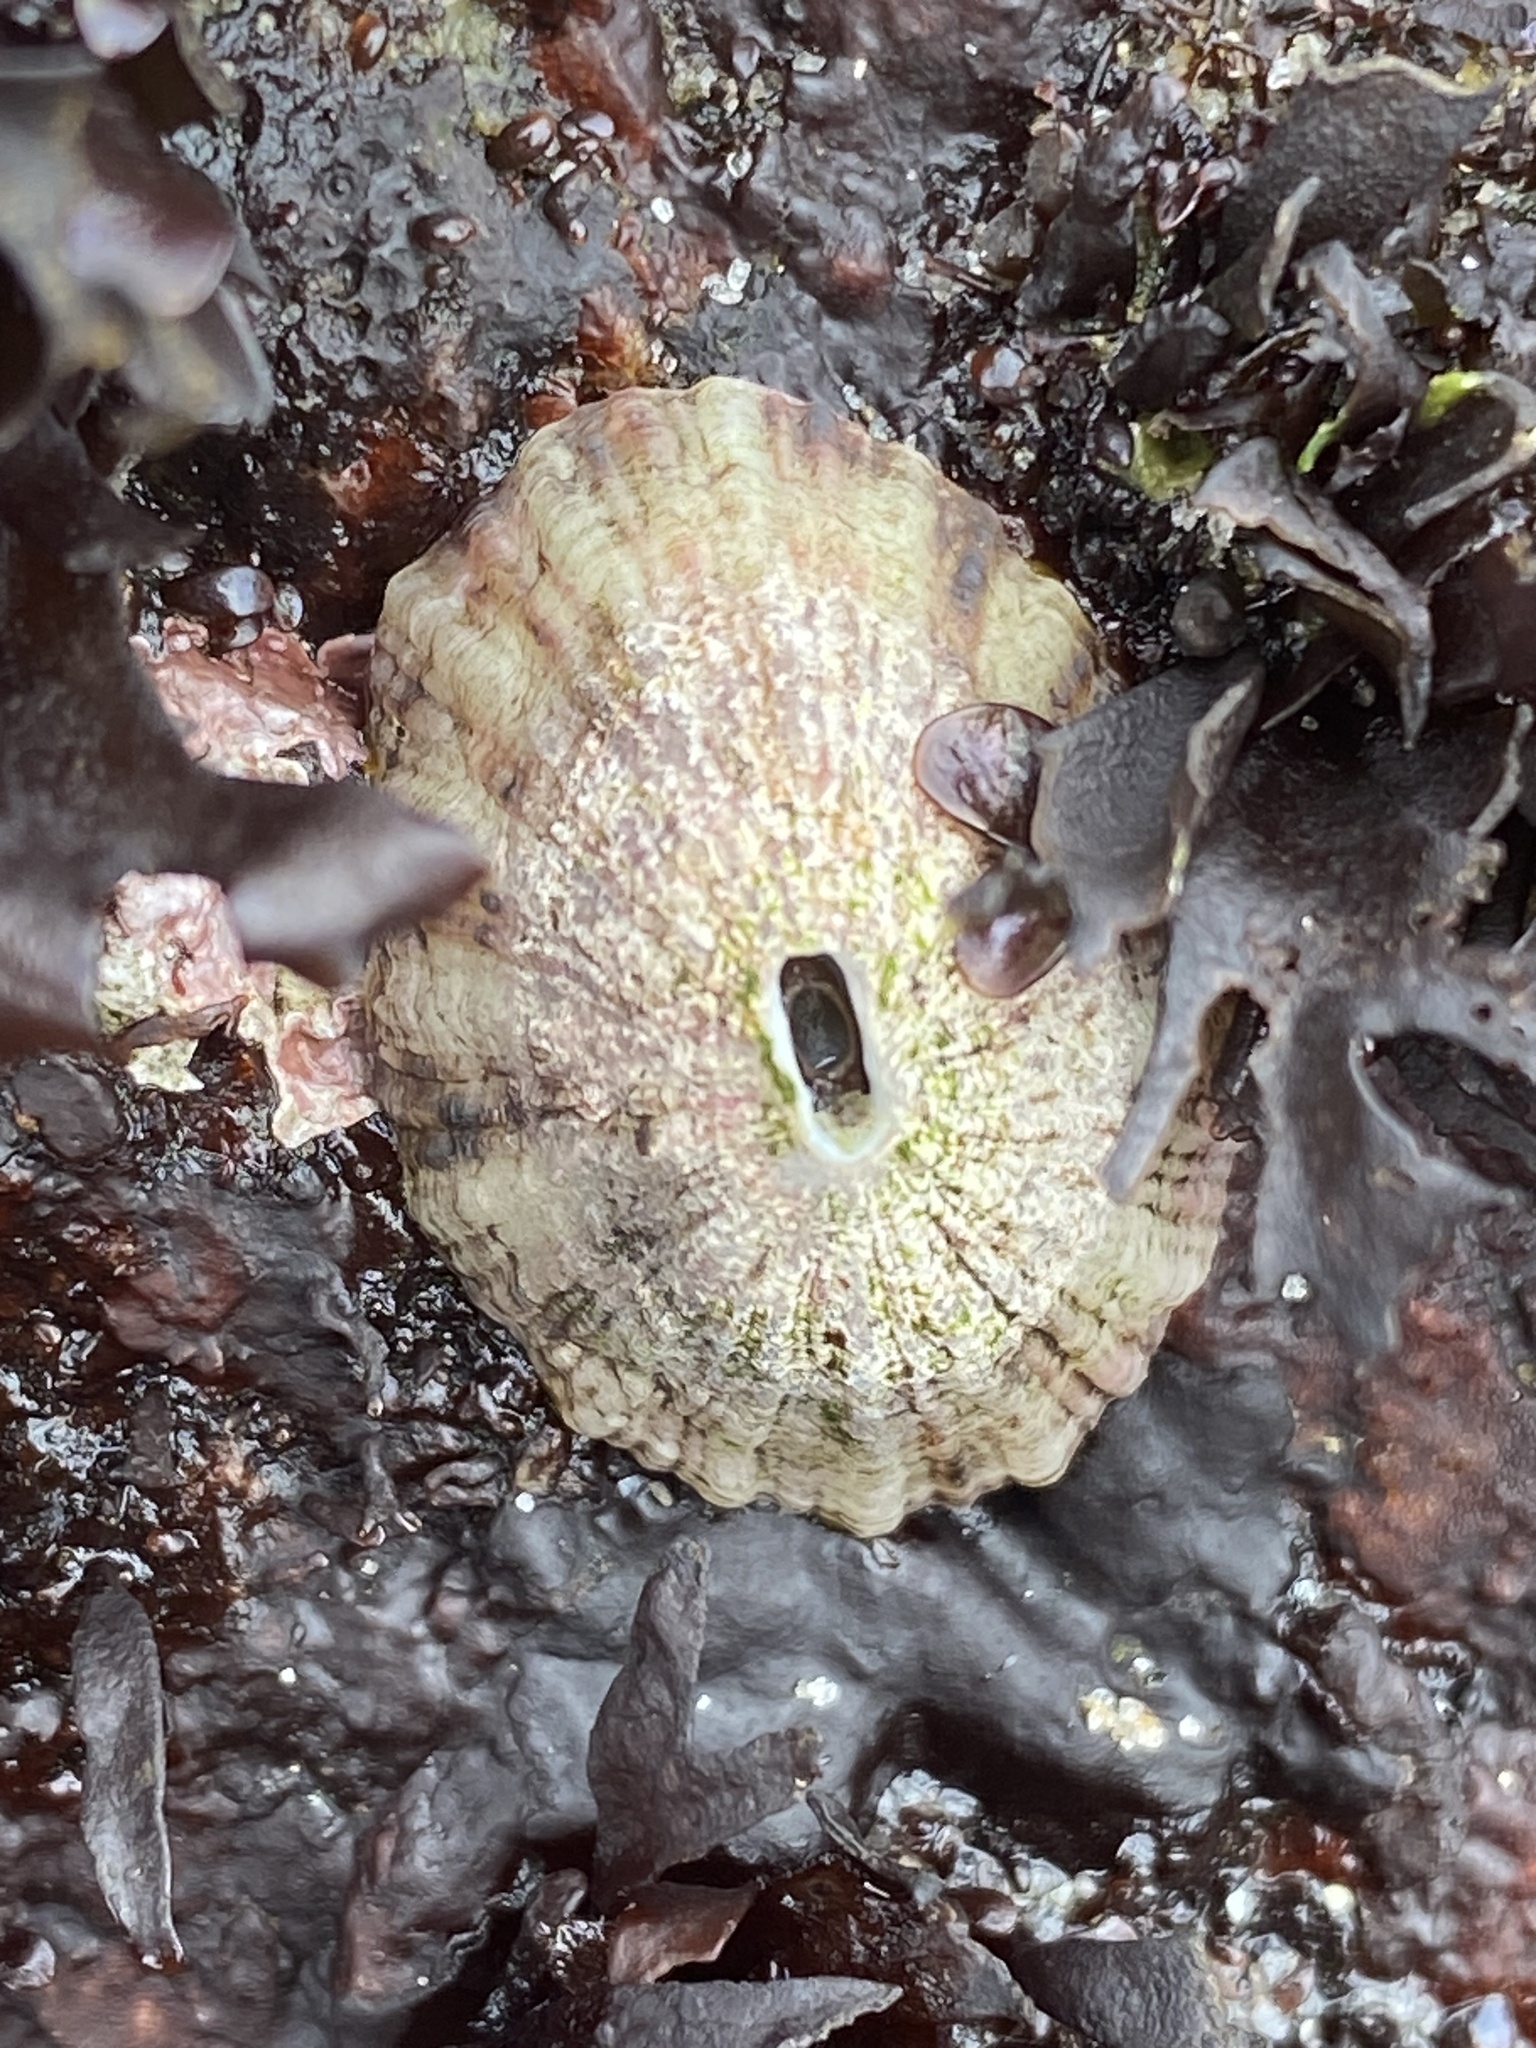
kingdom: Animalia
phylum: Mollusca
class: Gastropoda
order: Lepetellida
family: Fissurellidae
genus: Fissurella
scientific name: Fissurella volcano
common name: Volcano keyhole limpet
